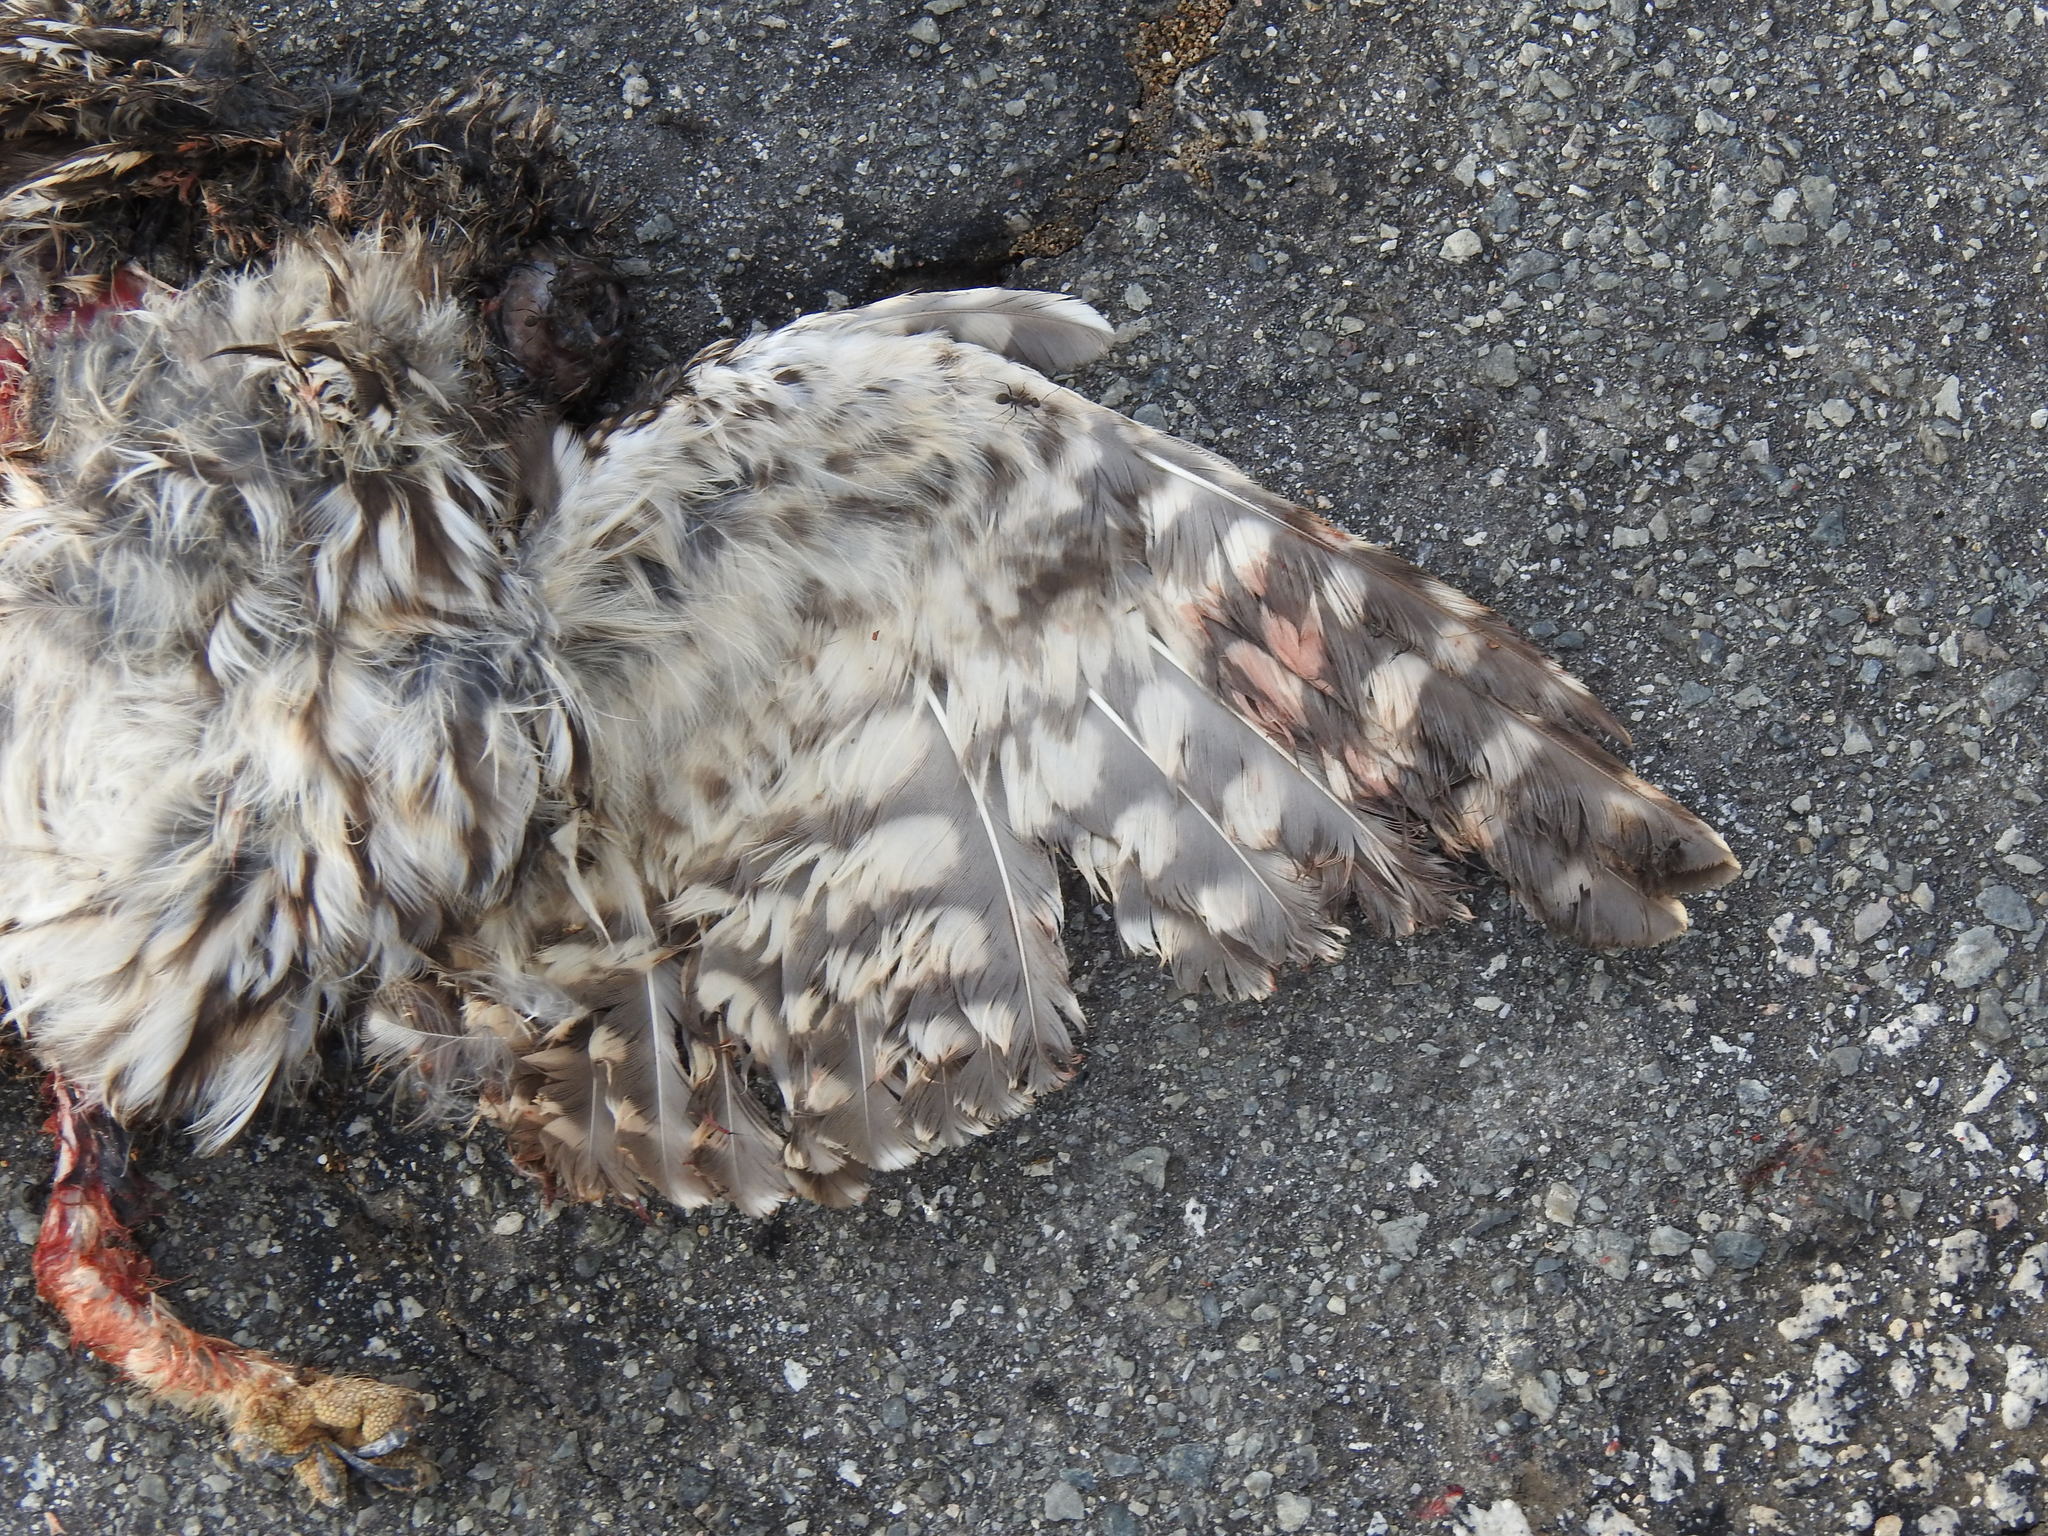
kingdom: Animalia
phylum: Chordata
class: Aves
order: Strigiformes
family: Strigidae
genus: Athene
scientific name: Athene noctua
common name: Little owl
